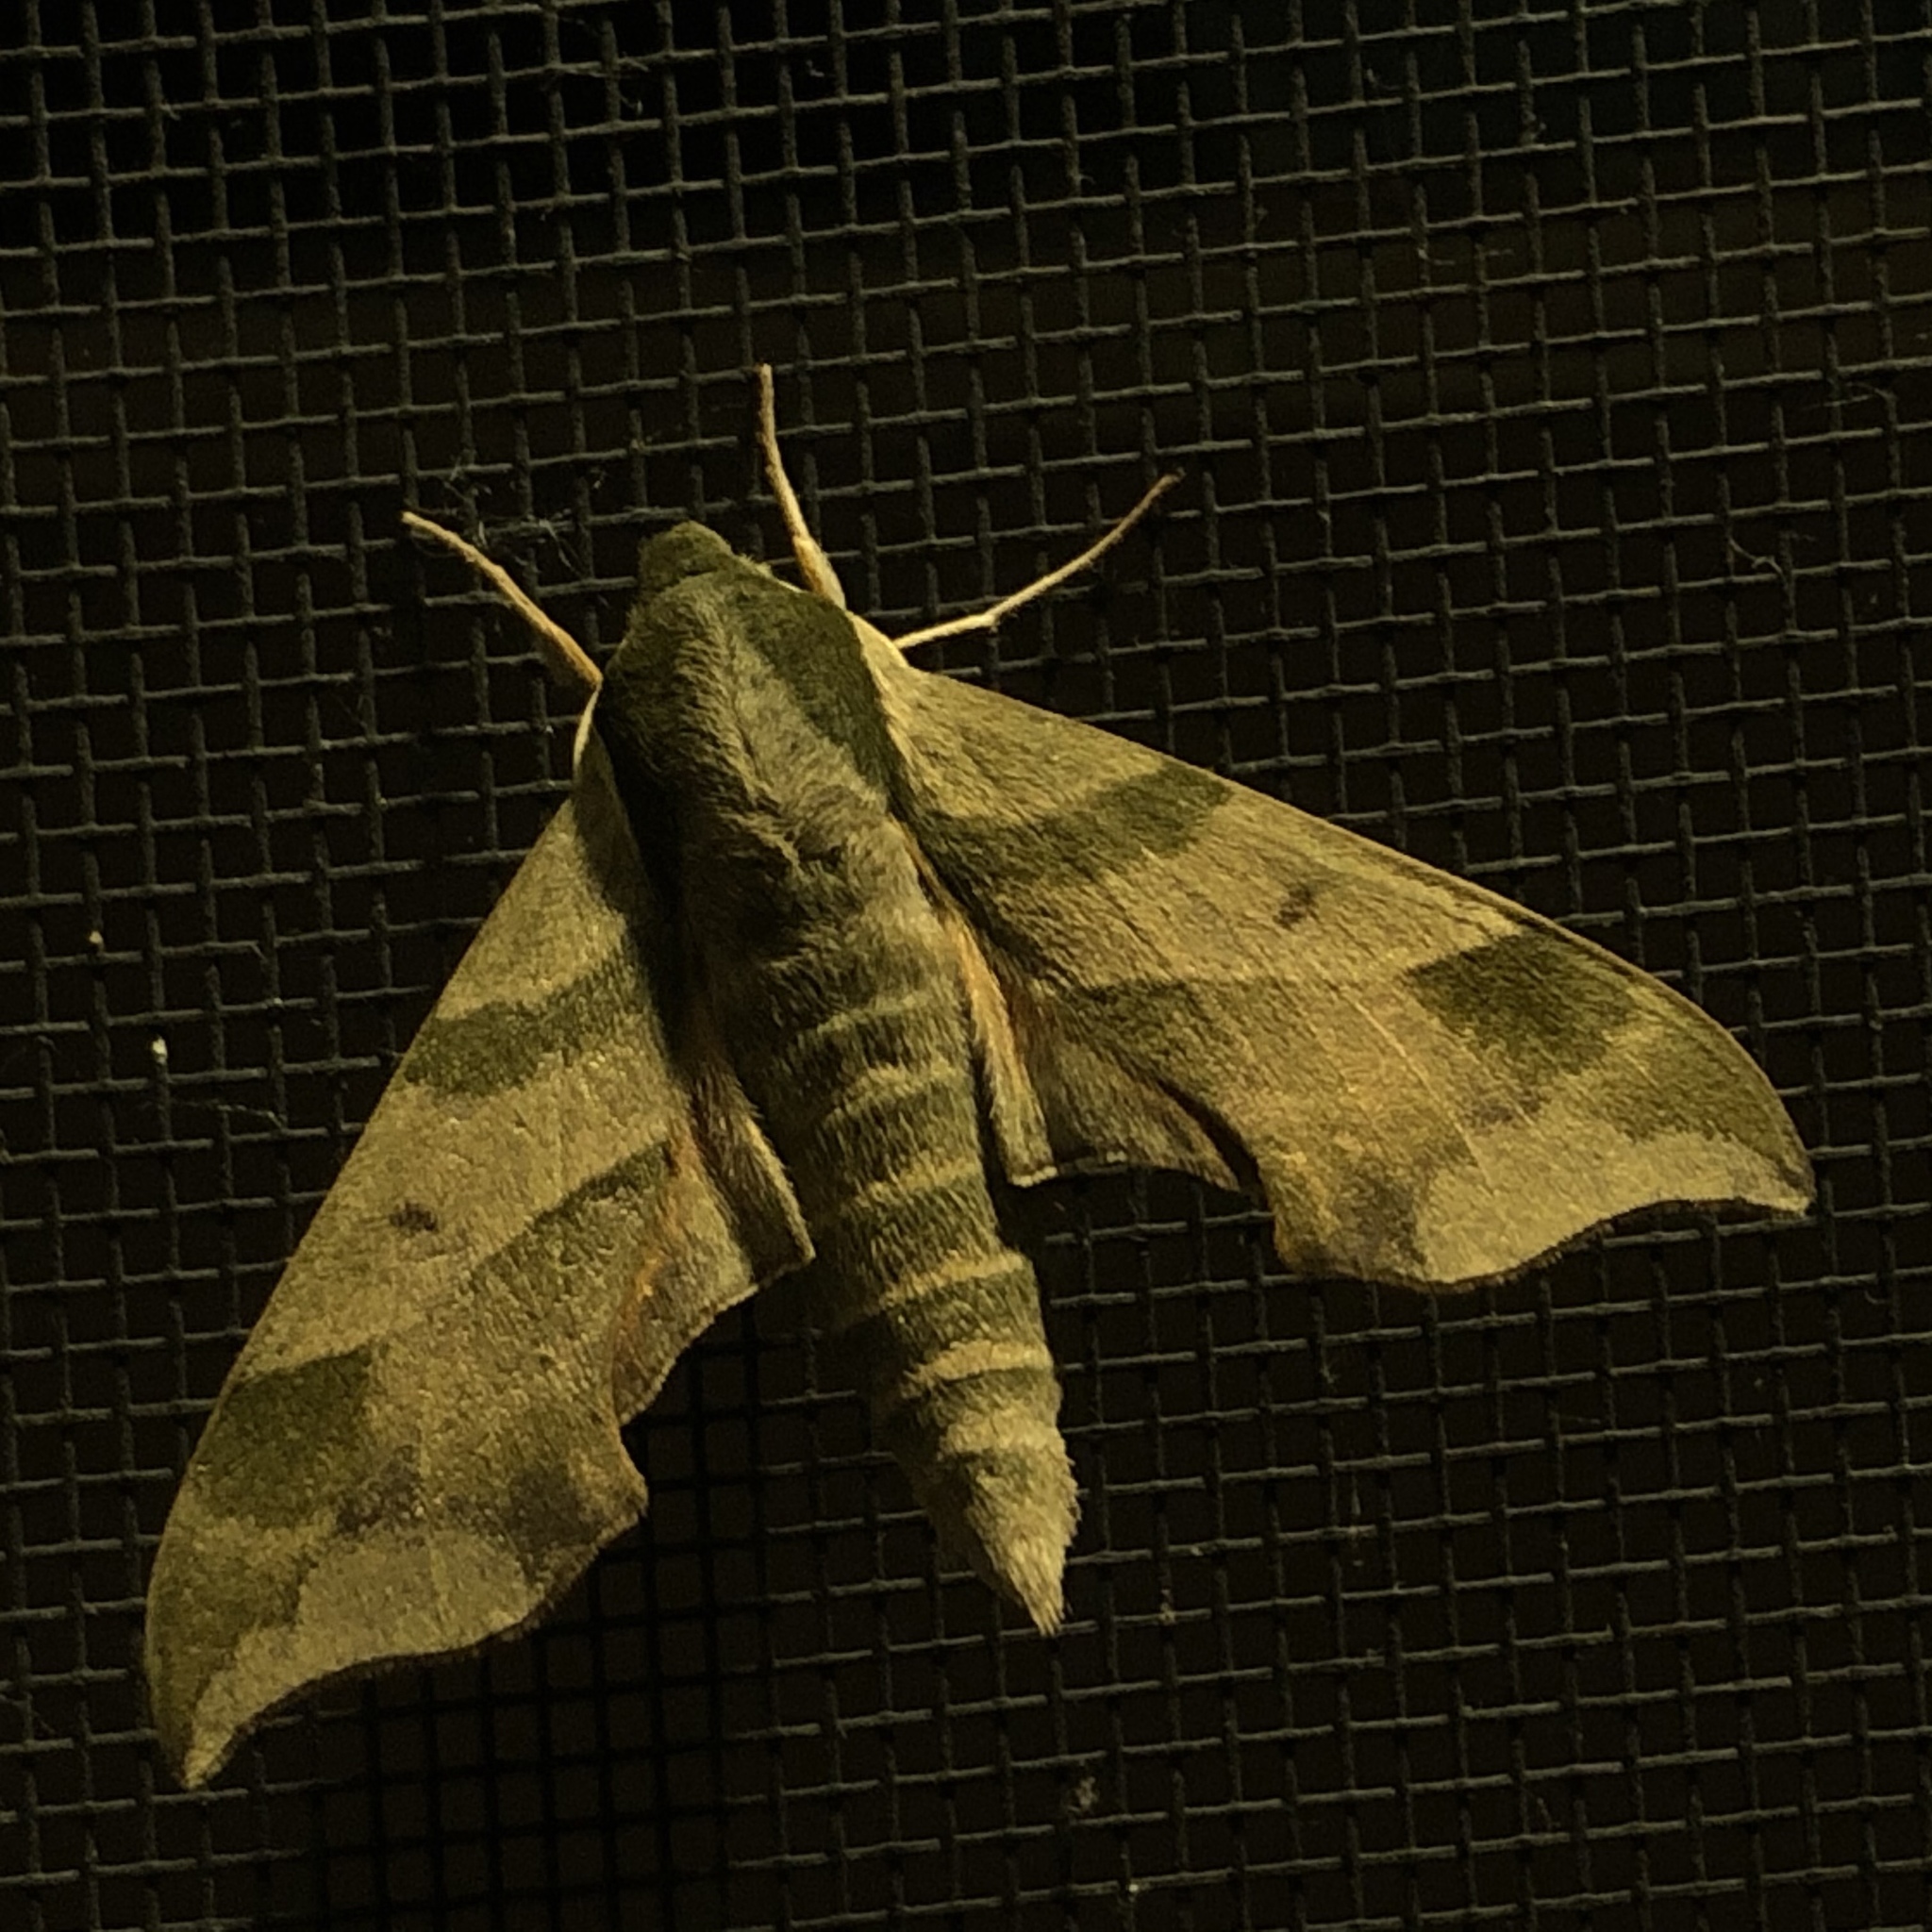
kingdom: Animalia
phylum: Arthropoda
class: Insecta
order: Lepidoptera
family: Sphingidae
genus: Darapsa
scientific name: Darapsa myron
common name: Hog sphinx
